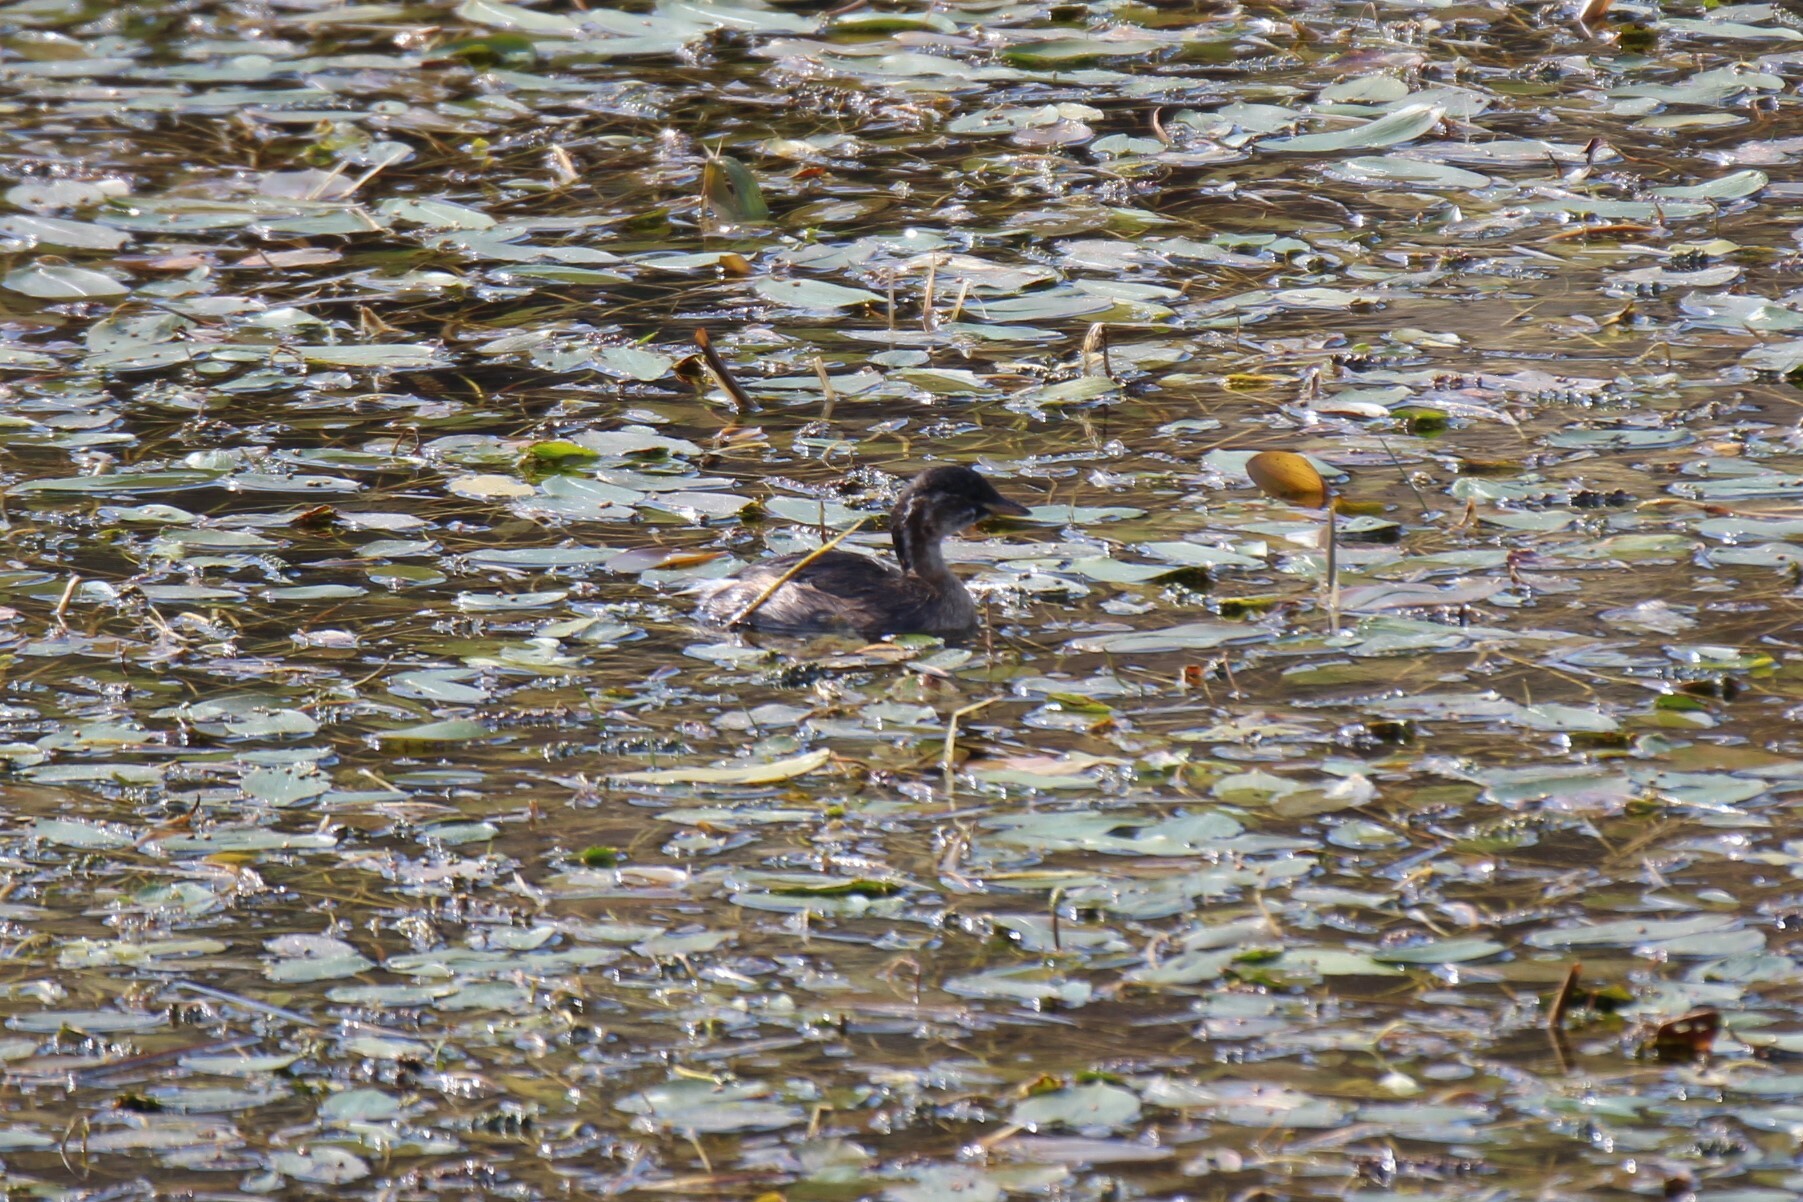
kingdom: Animalia
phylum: Chordata
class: Aves
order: Podicipediformes
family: Podicipedidae
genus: Tachybaptus
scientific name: Tachybaptus ruficollis
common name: Little grebe
